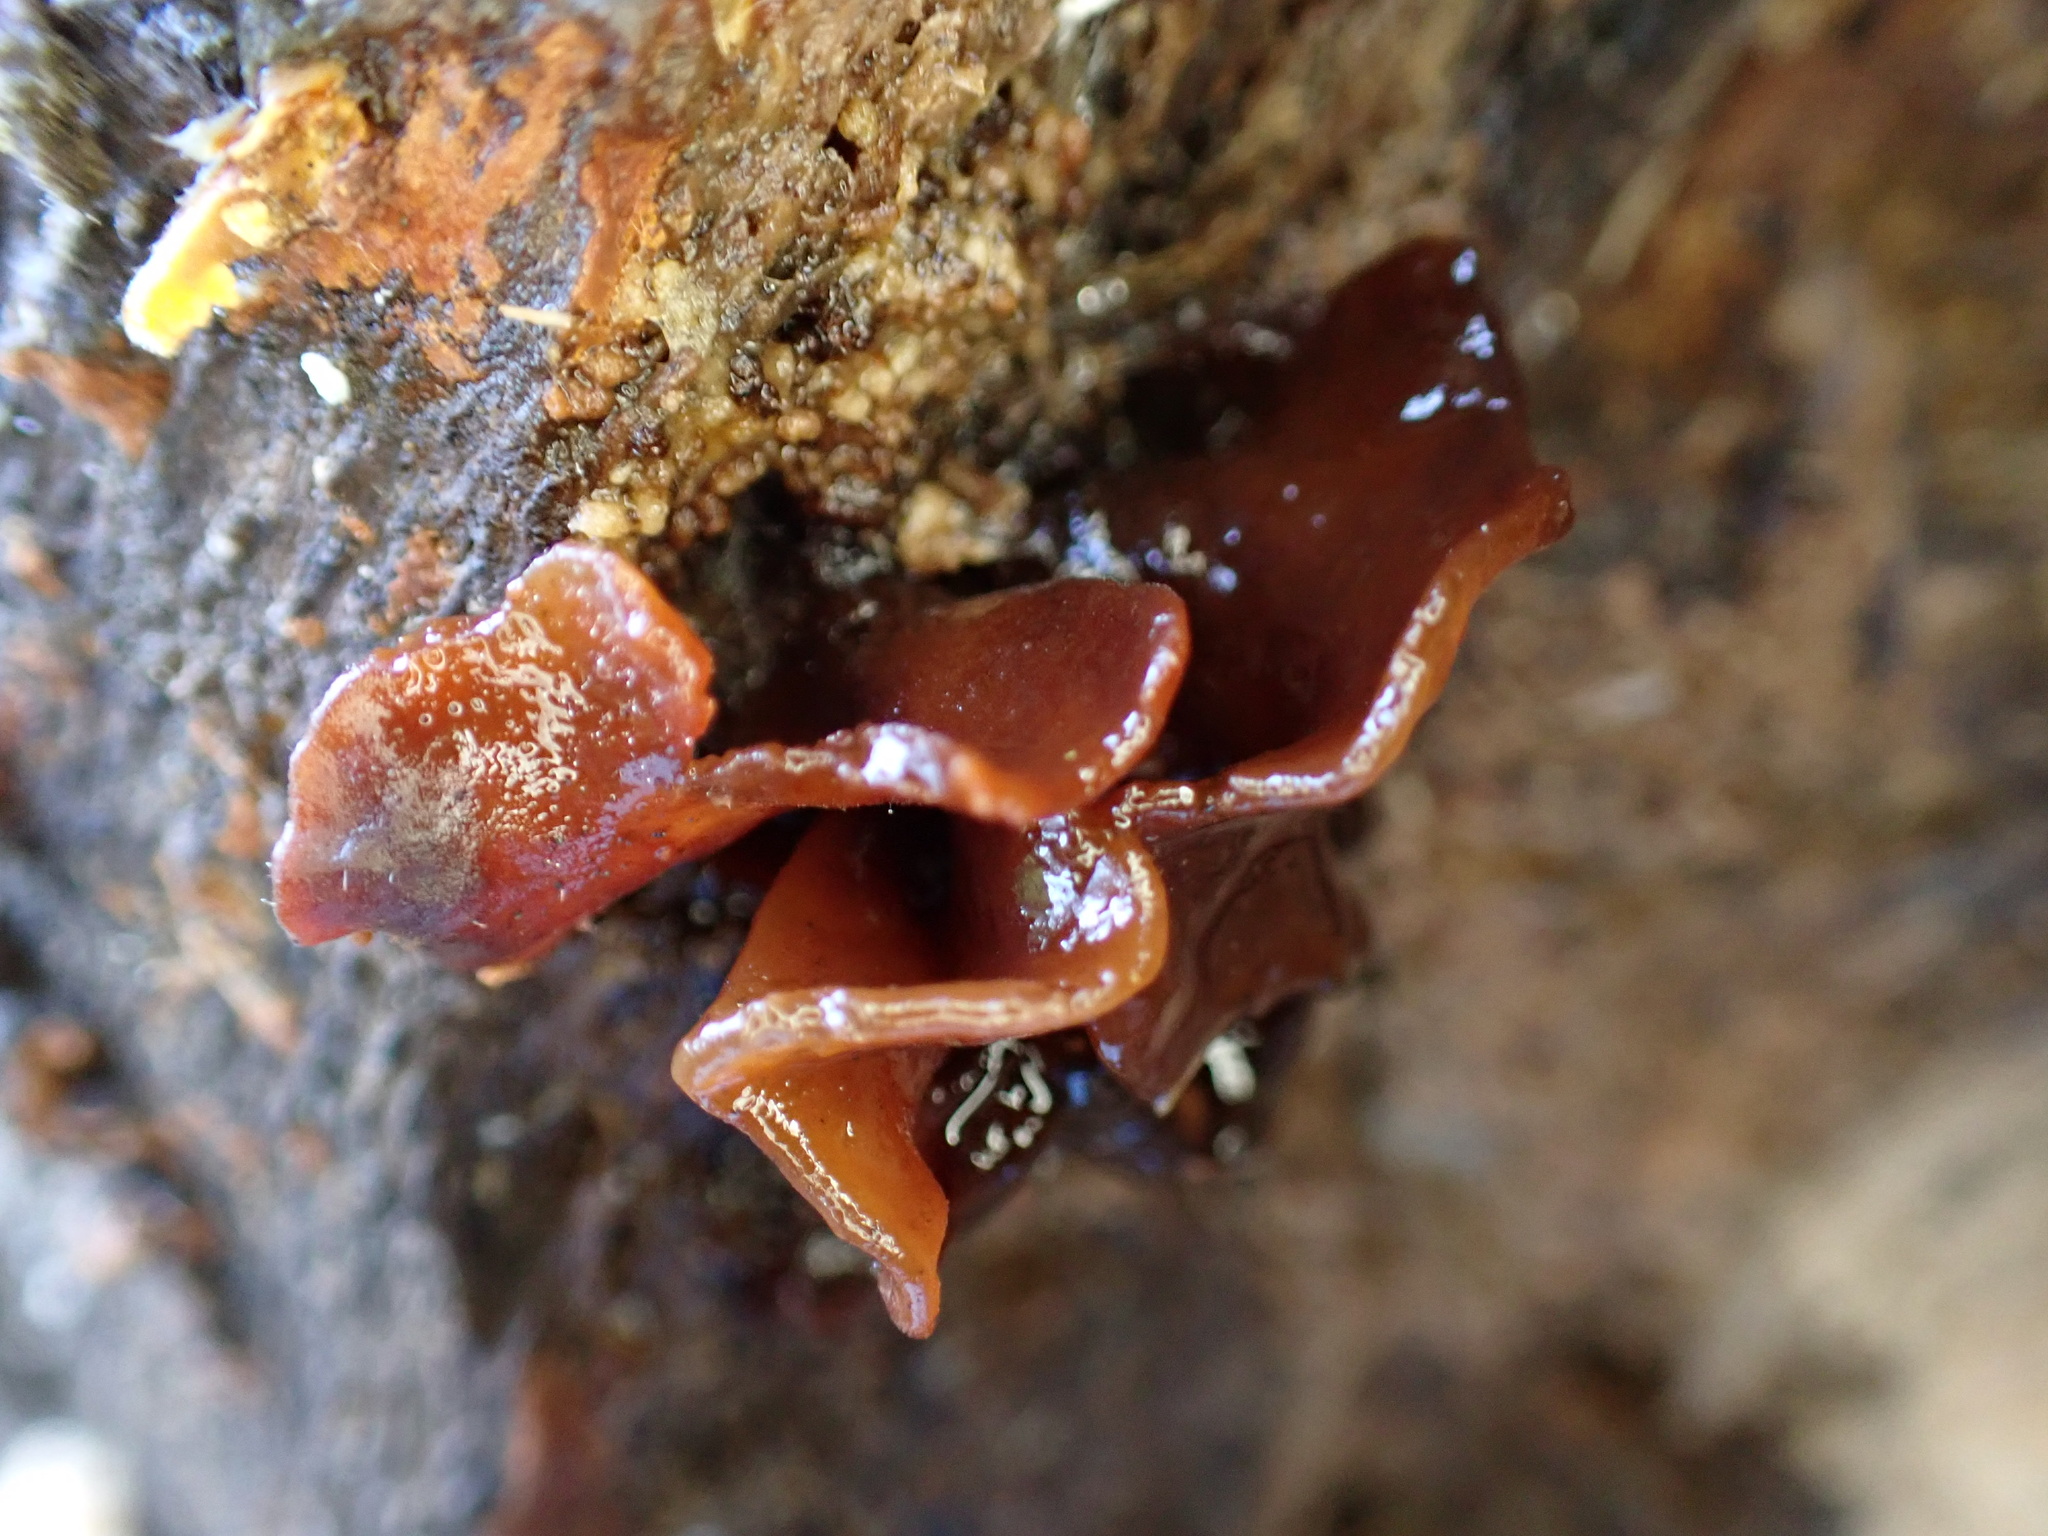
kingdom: Fungi
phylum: Basidiomycota
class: Tremellomycetes
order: Tremellales
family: Tremellaceae
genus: Phaeotremella
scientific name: Phaeotremella foliacea
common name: Leafy brain
